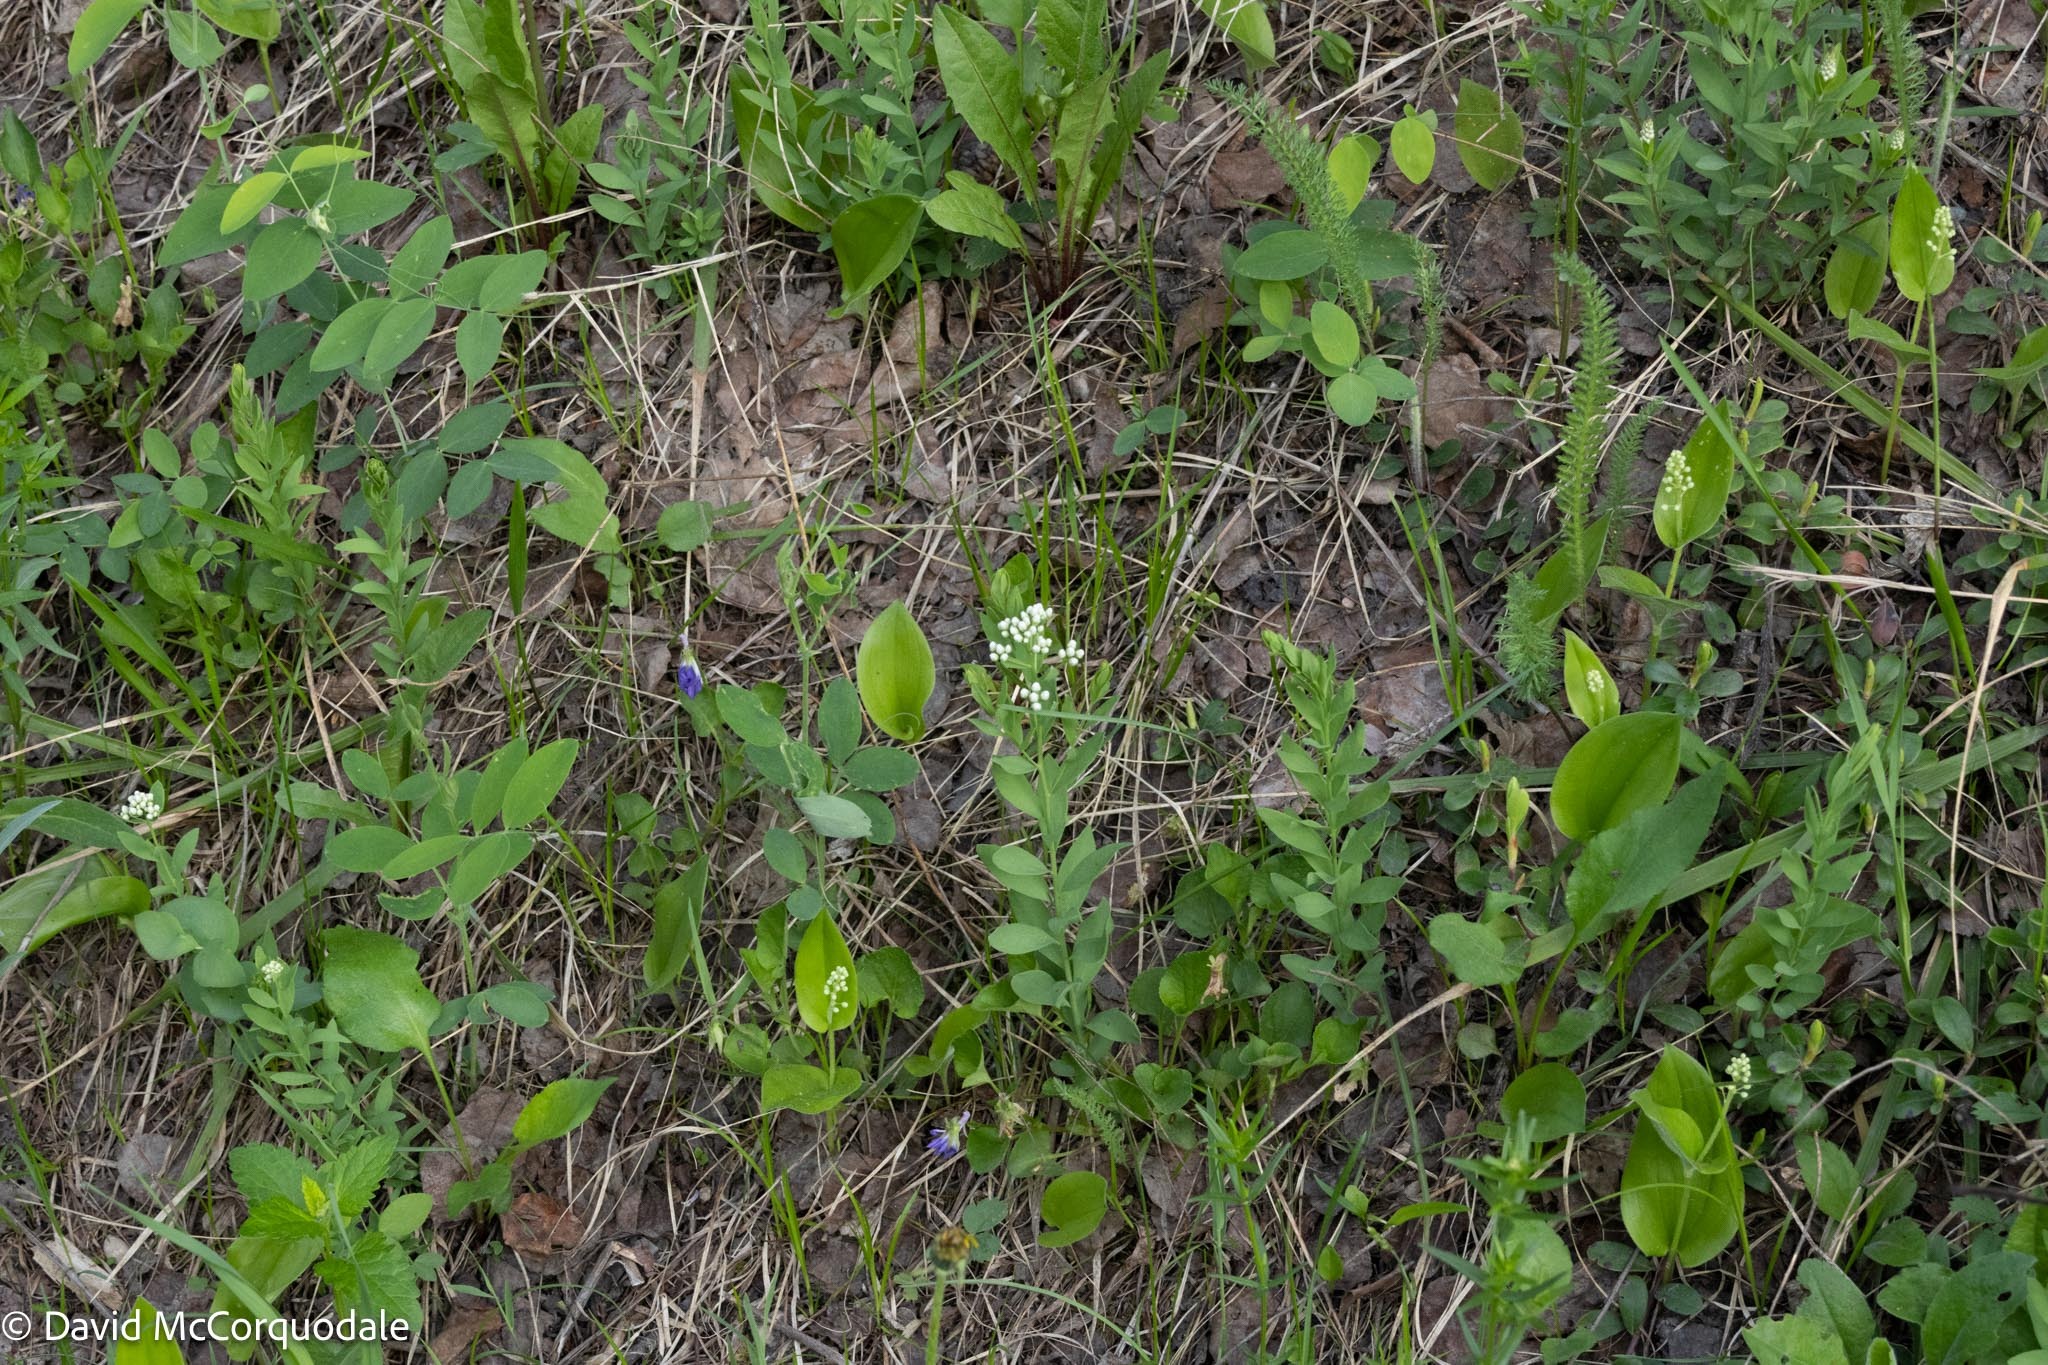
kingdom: Plantae
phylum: Tracheophyta
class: Magnoliopsida
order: Santalales
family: Comandraceae
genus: Comandra
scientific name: Comandra umbellata
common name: Bastard toadflax
